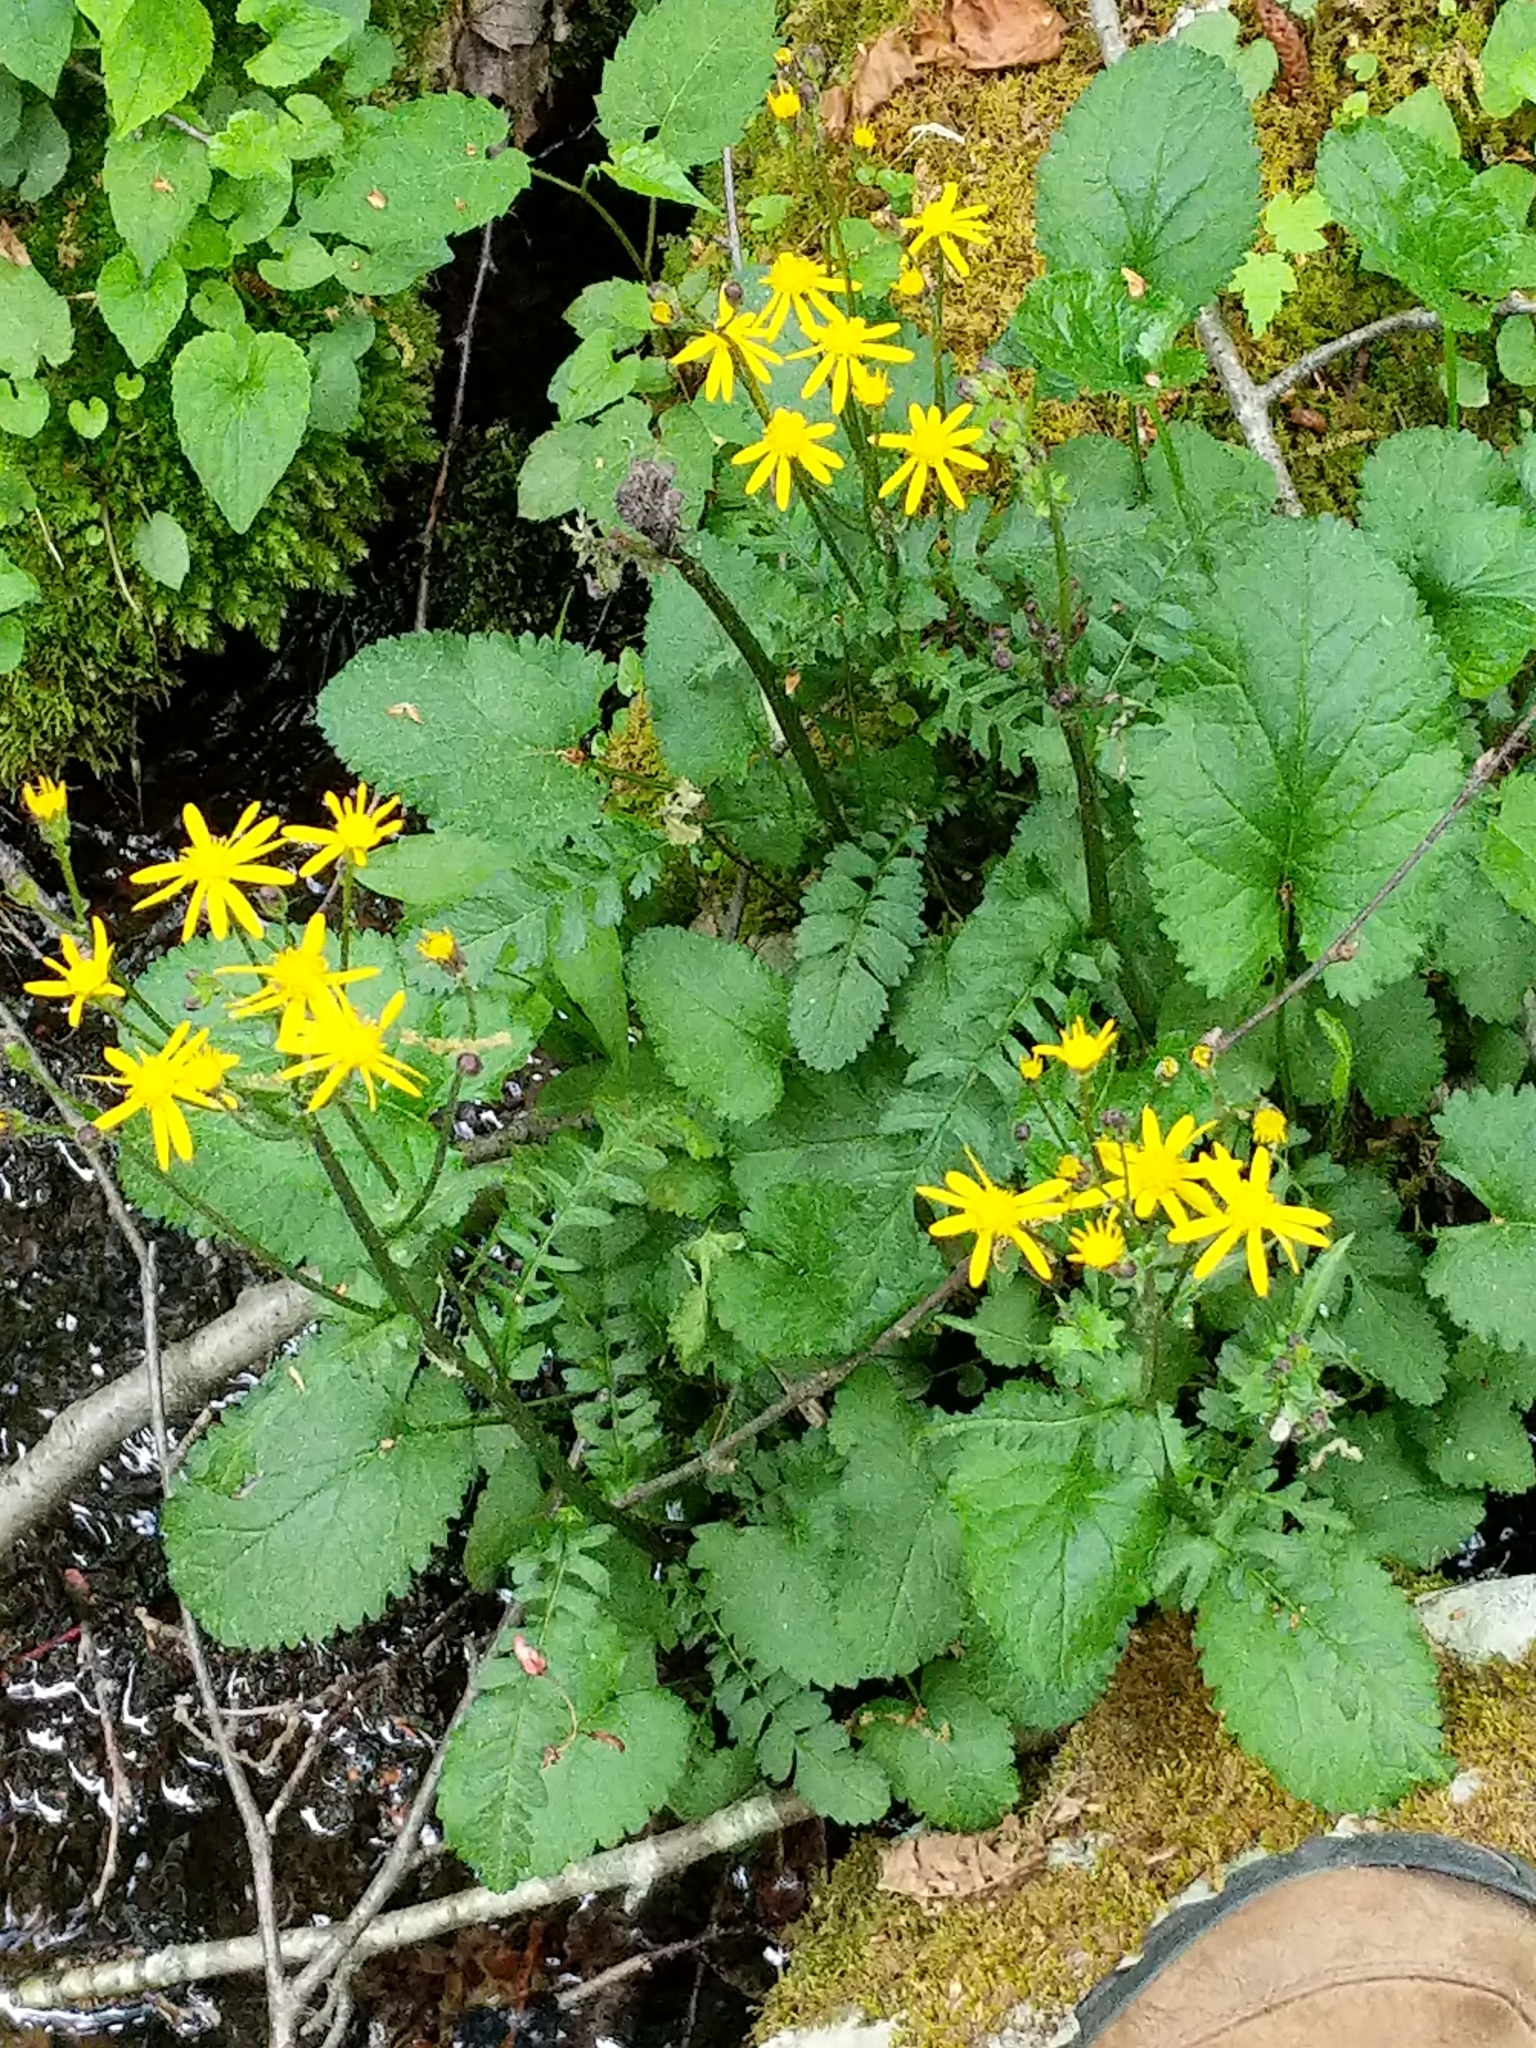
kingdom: Plantae
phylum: Tracheophyta
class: Magnoliopsida
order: Asterales
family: Asteraceae
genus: Packera
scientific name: Packera aurea
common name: Golden groundsel
